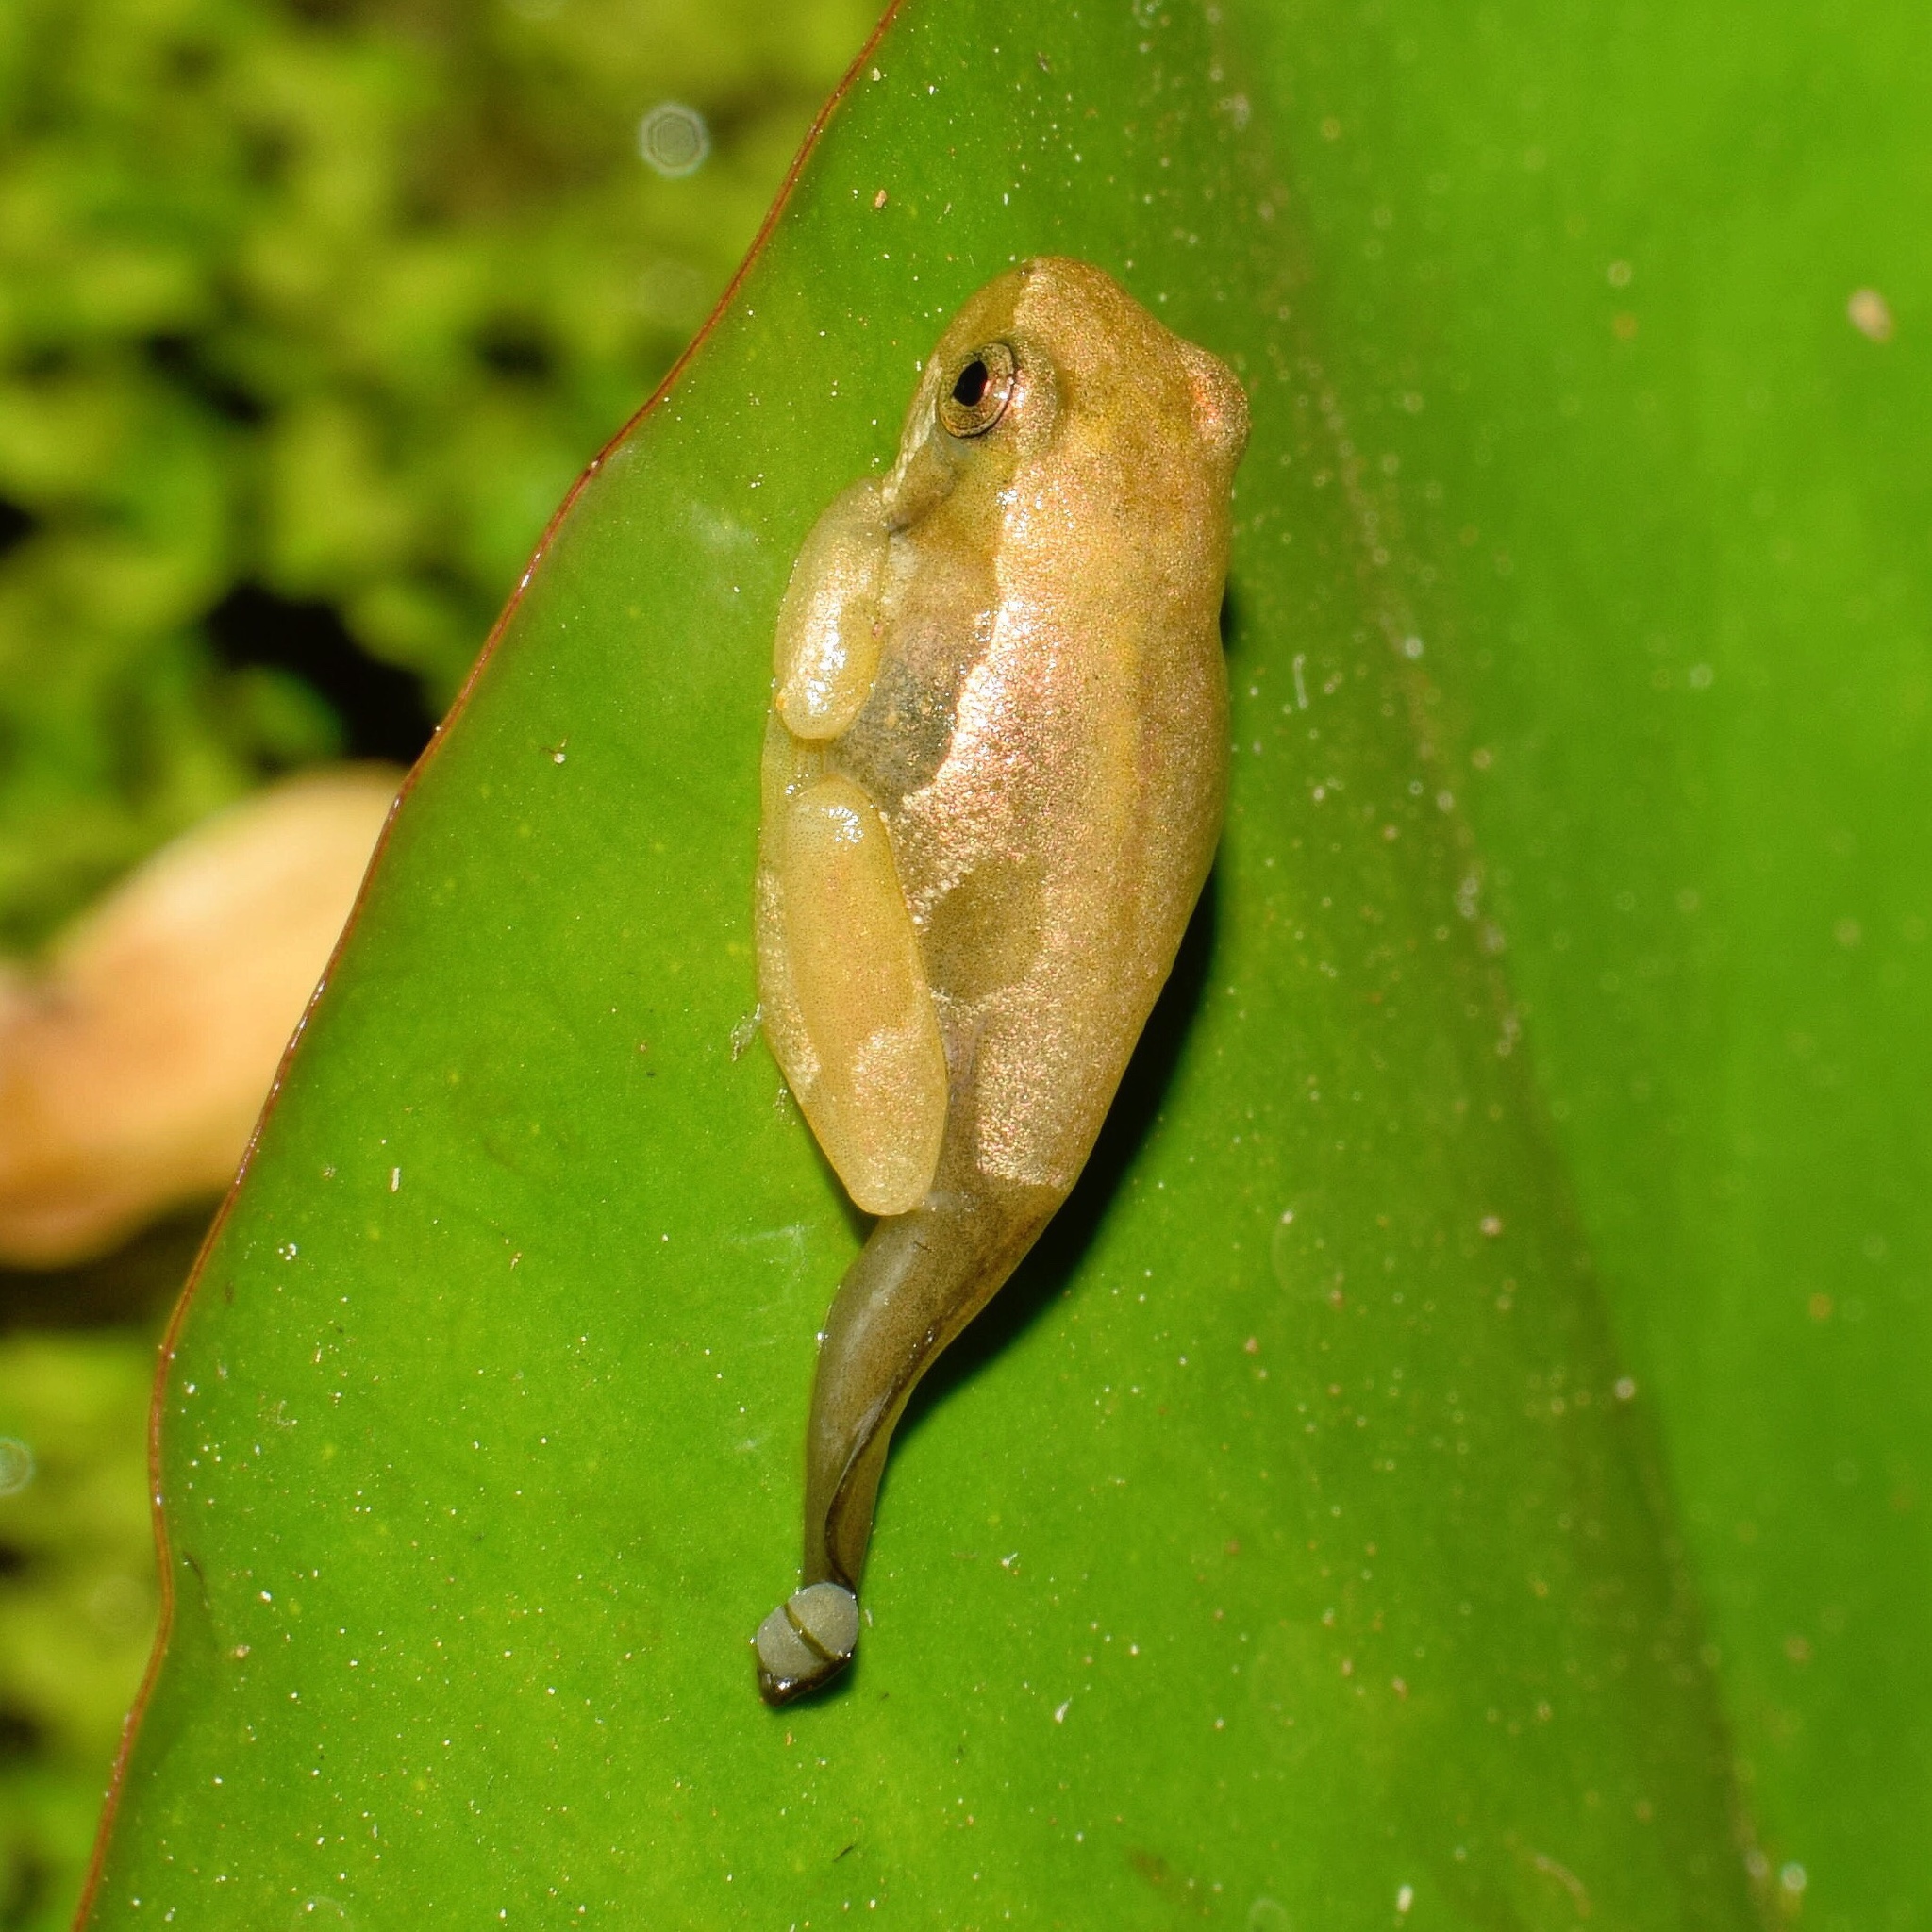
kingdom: Animalia
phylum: Chordata
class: Amphibia
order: Anura
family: Hyperoliidae
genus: Hyperolius
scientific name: Hyperolius marmoratus
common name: Painted reed frog
